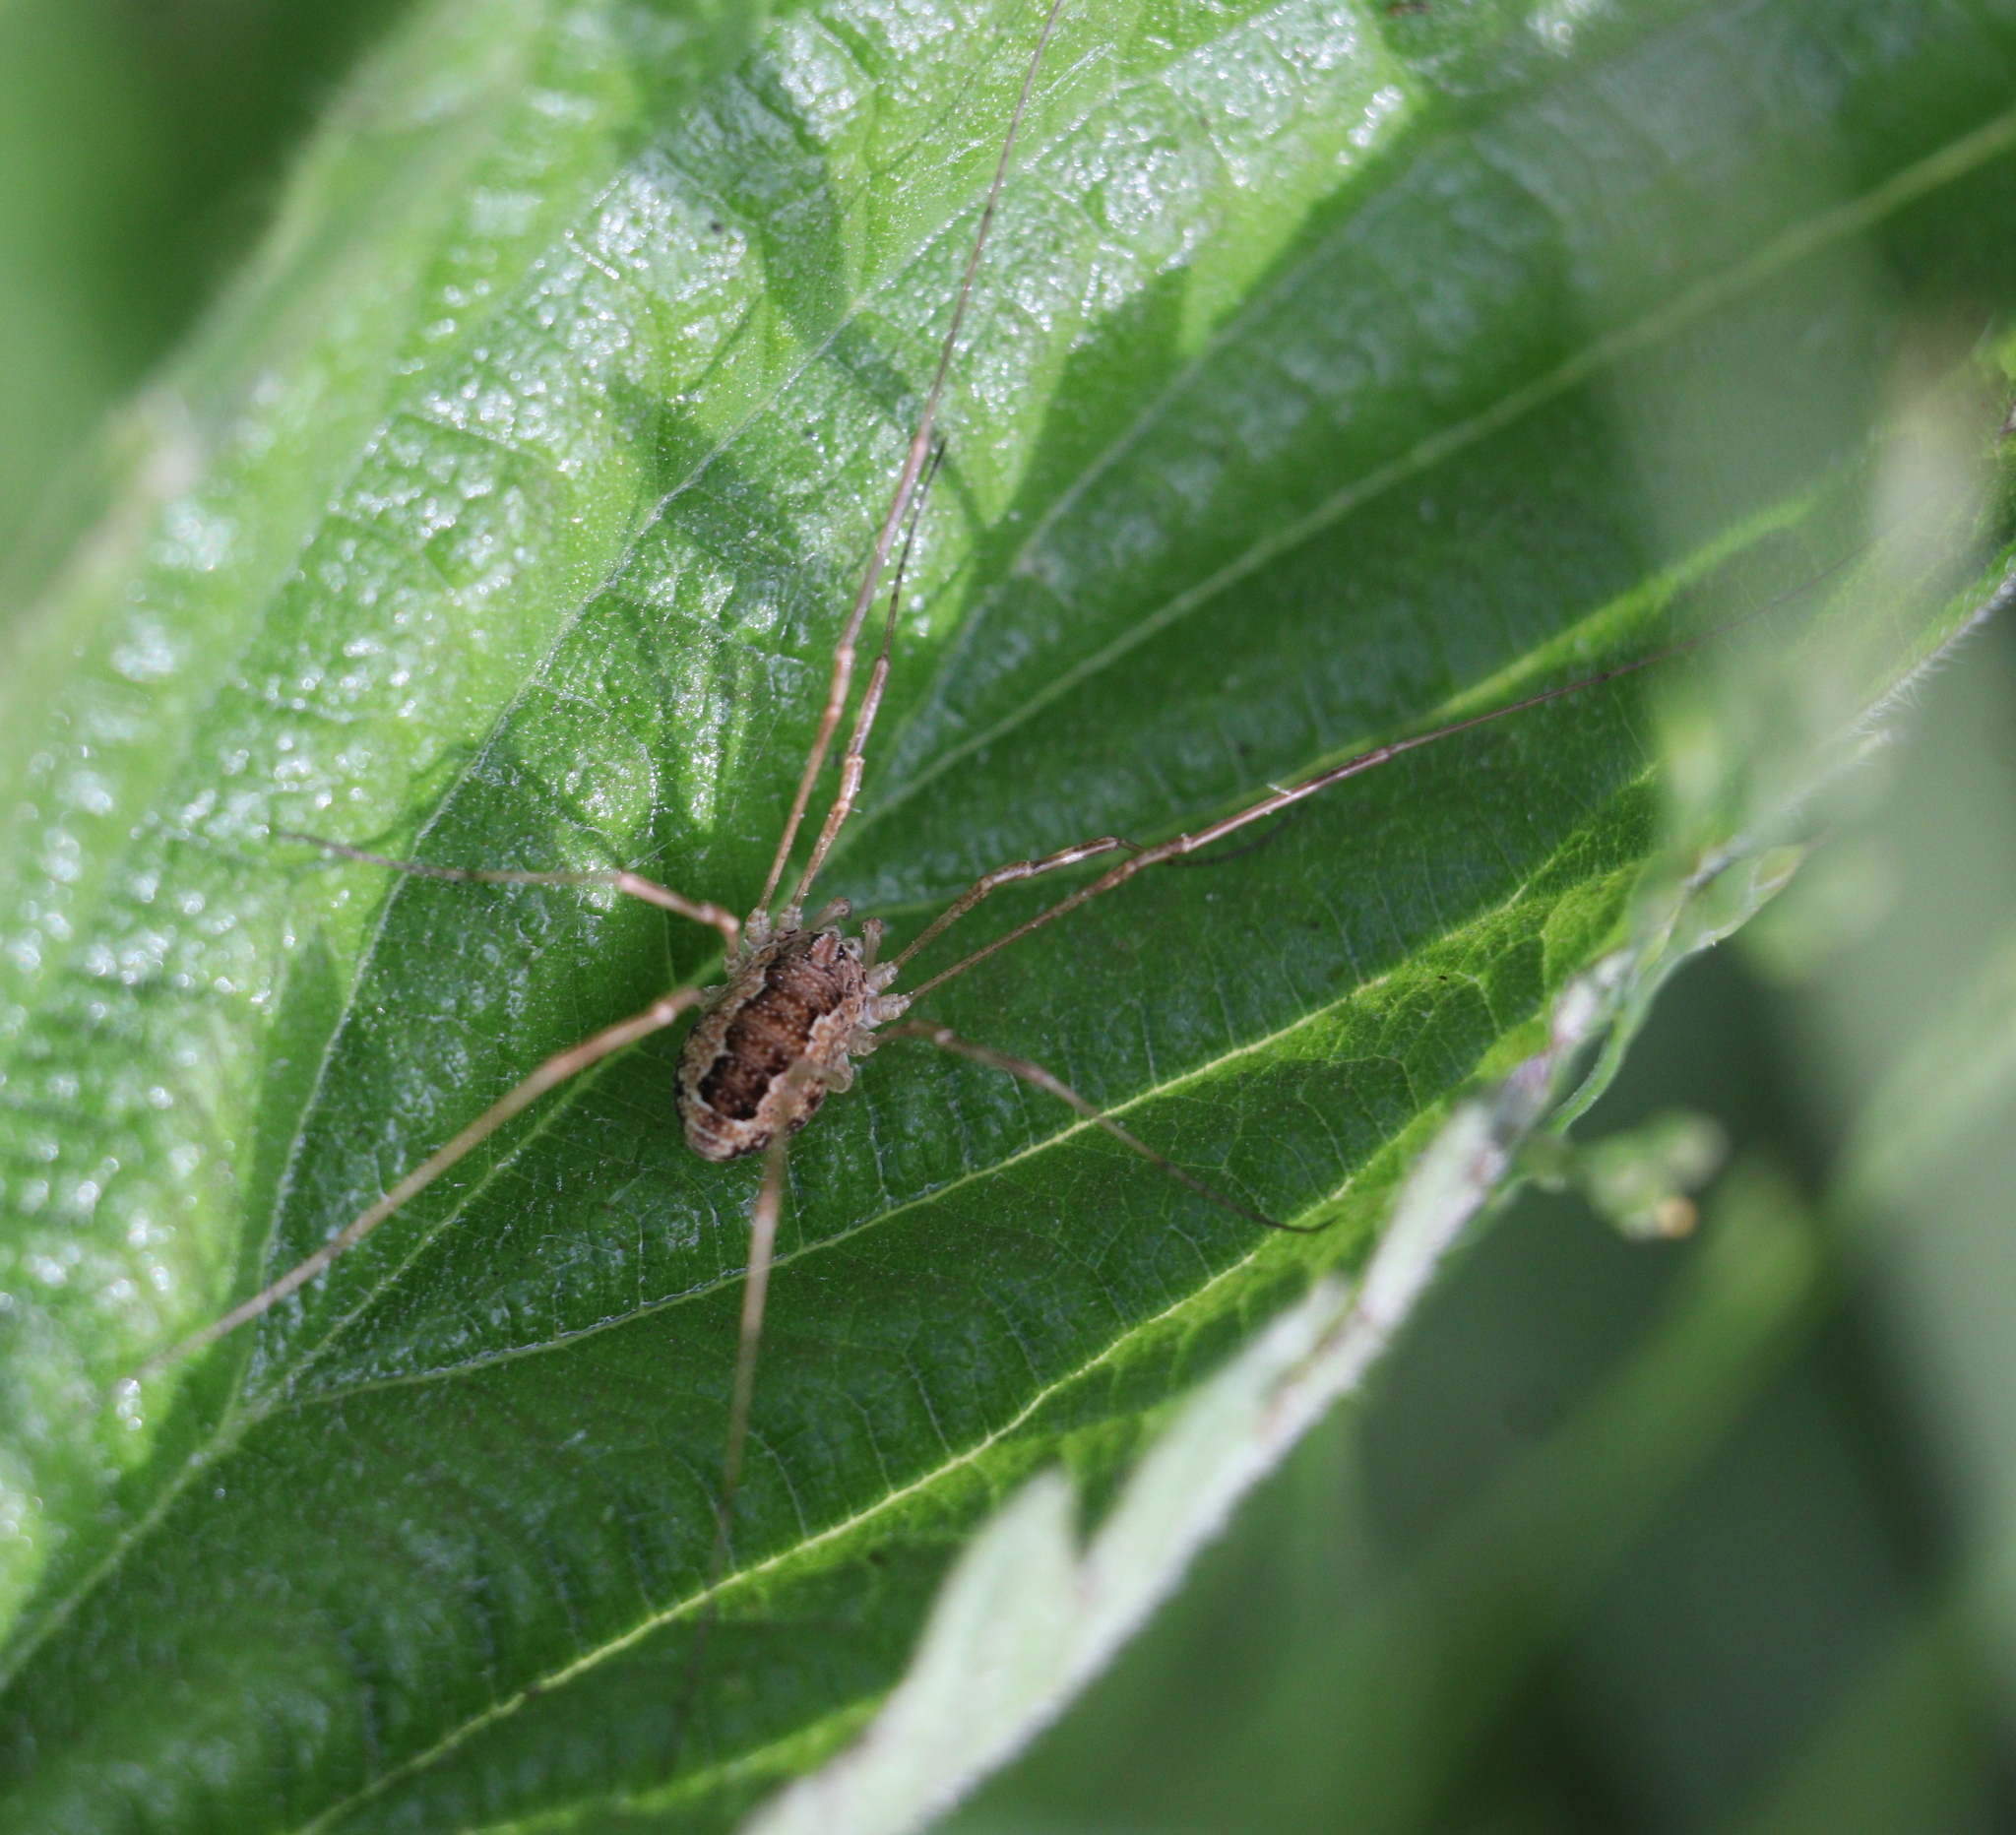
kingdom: Animalia
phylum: Arthropoda
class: Arachnida
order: Opiliones
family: Phalangiidae
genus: Rilaena
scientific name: Rilaena triangularis
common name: Spring harvestman
